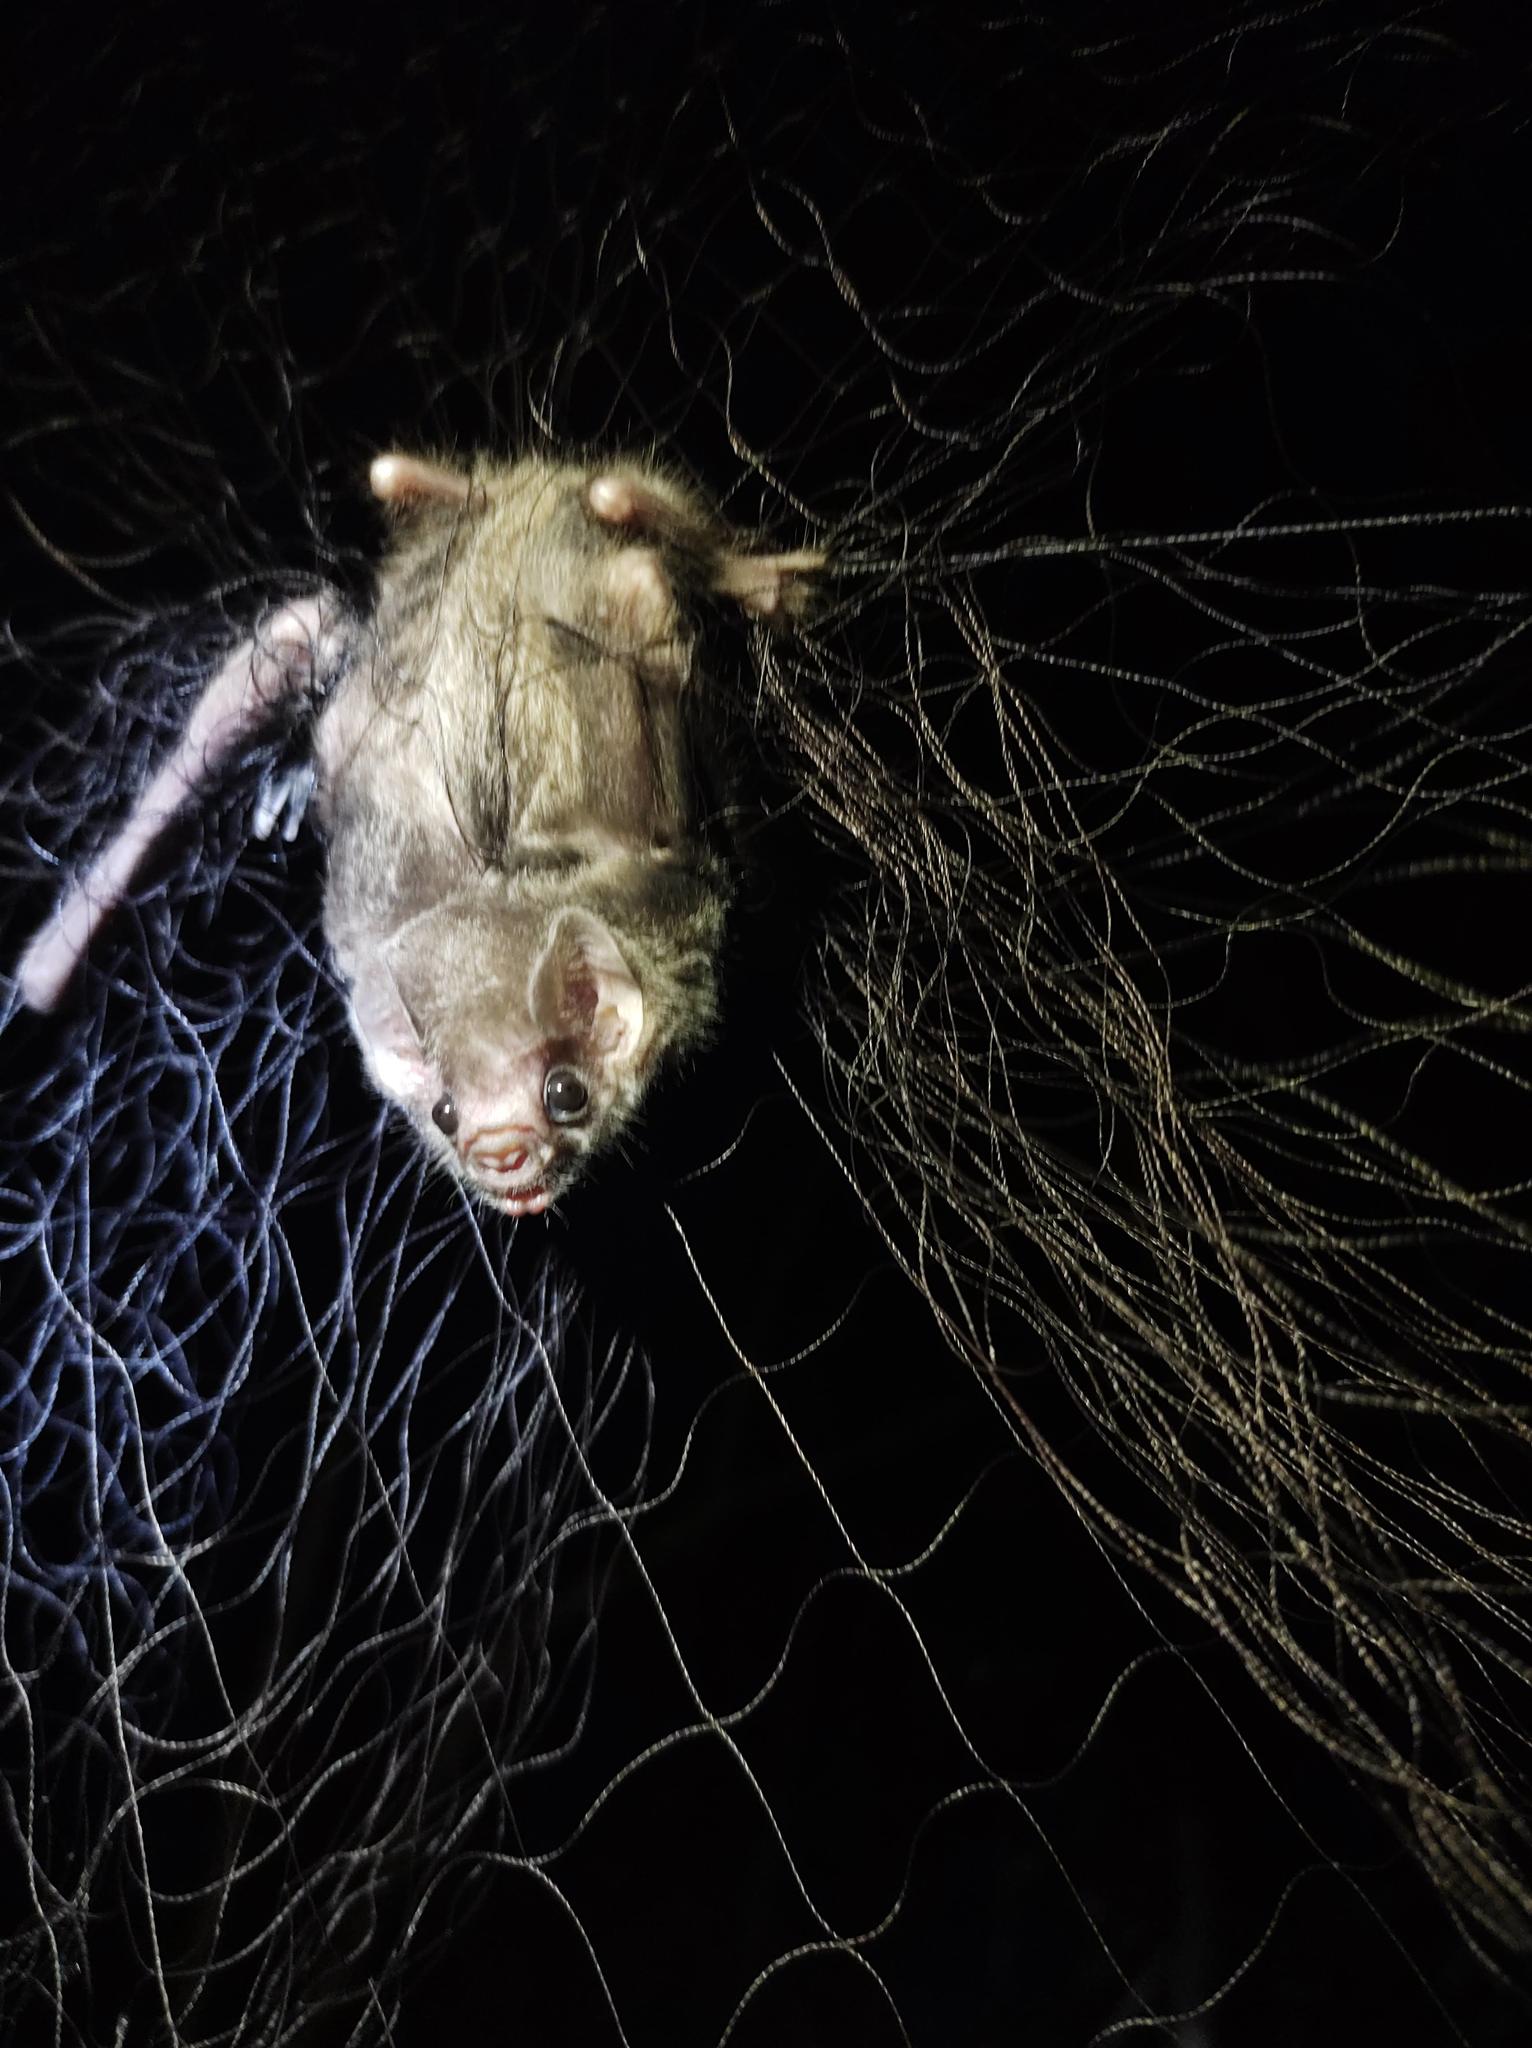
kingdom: Animalia
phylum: Chordata
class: Mammalia
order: Chiroptera
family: Phyllostomidae
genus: Diphylla
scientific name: Diphylla ecaudata
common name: Hairy-legged vampire bat
